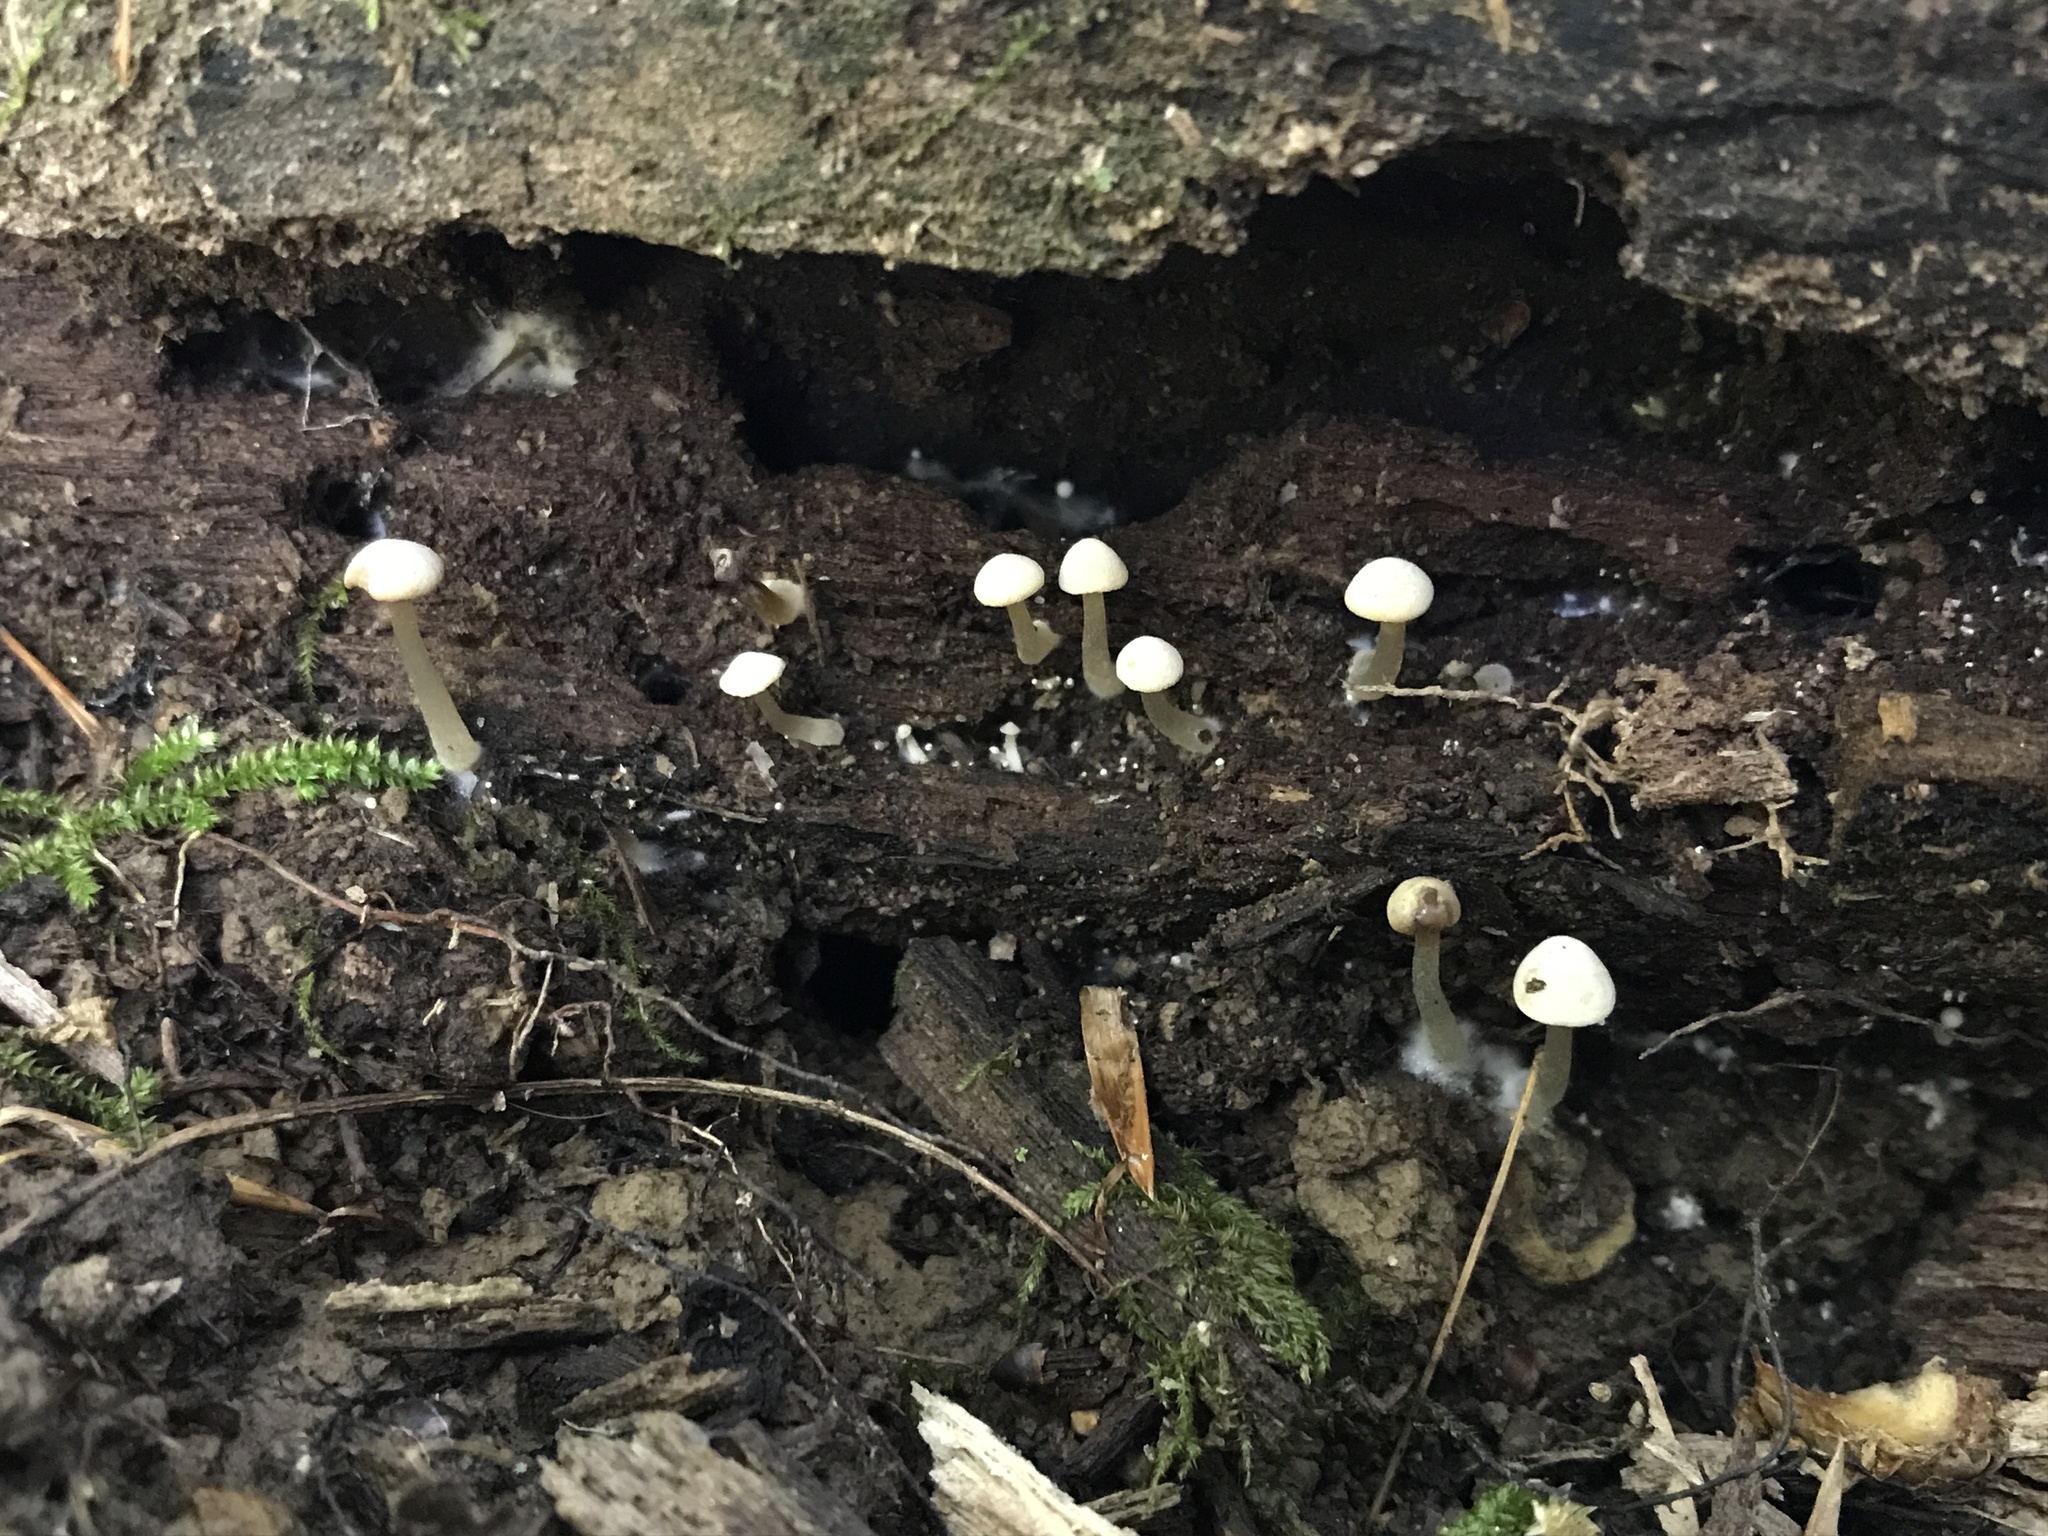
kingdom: Fungi
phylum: Basidiomycota
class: Agaricomycetes
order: Agaricales
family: Callistosporiaceae
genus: Callistosporium
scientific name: Callistosporium pseudofelleum
